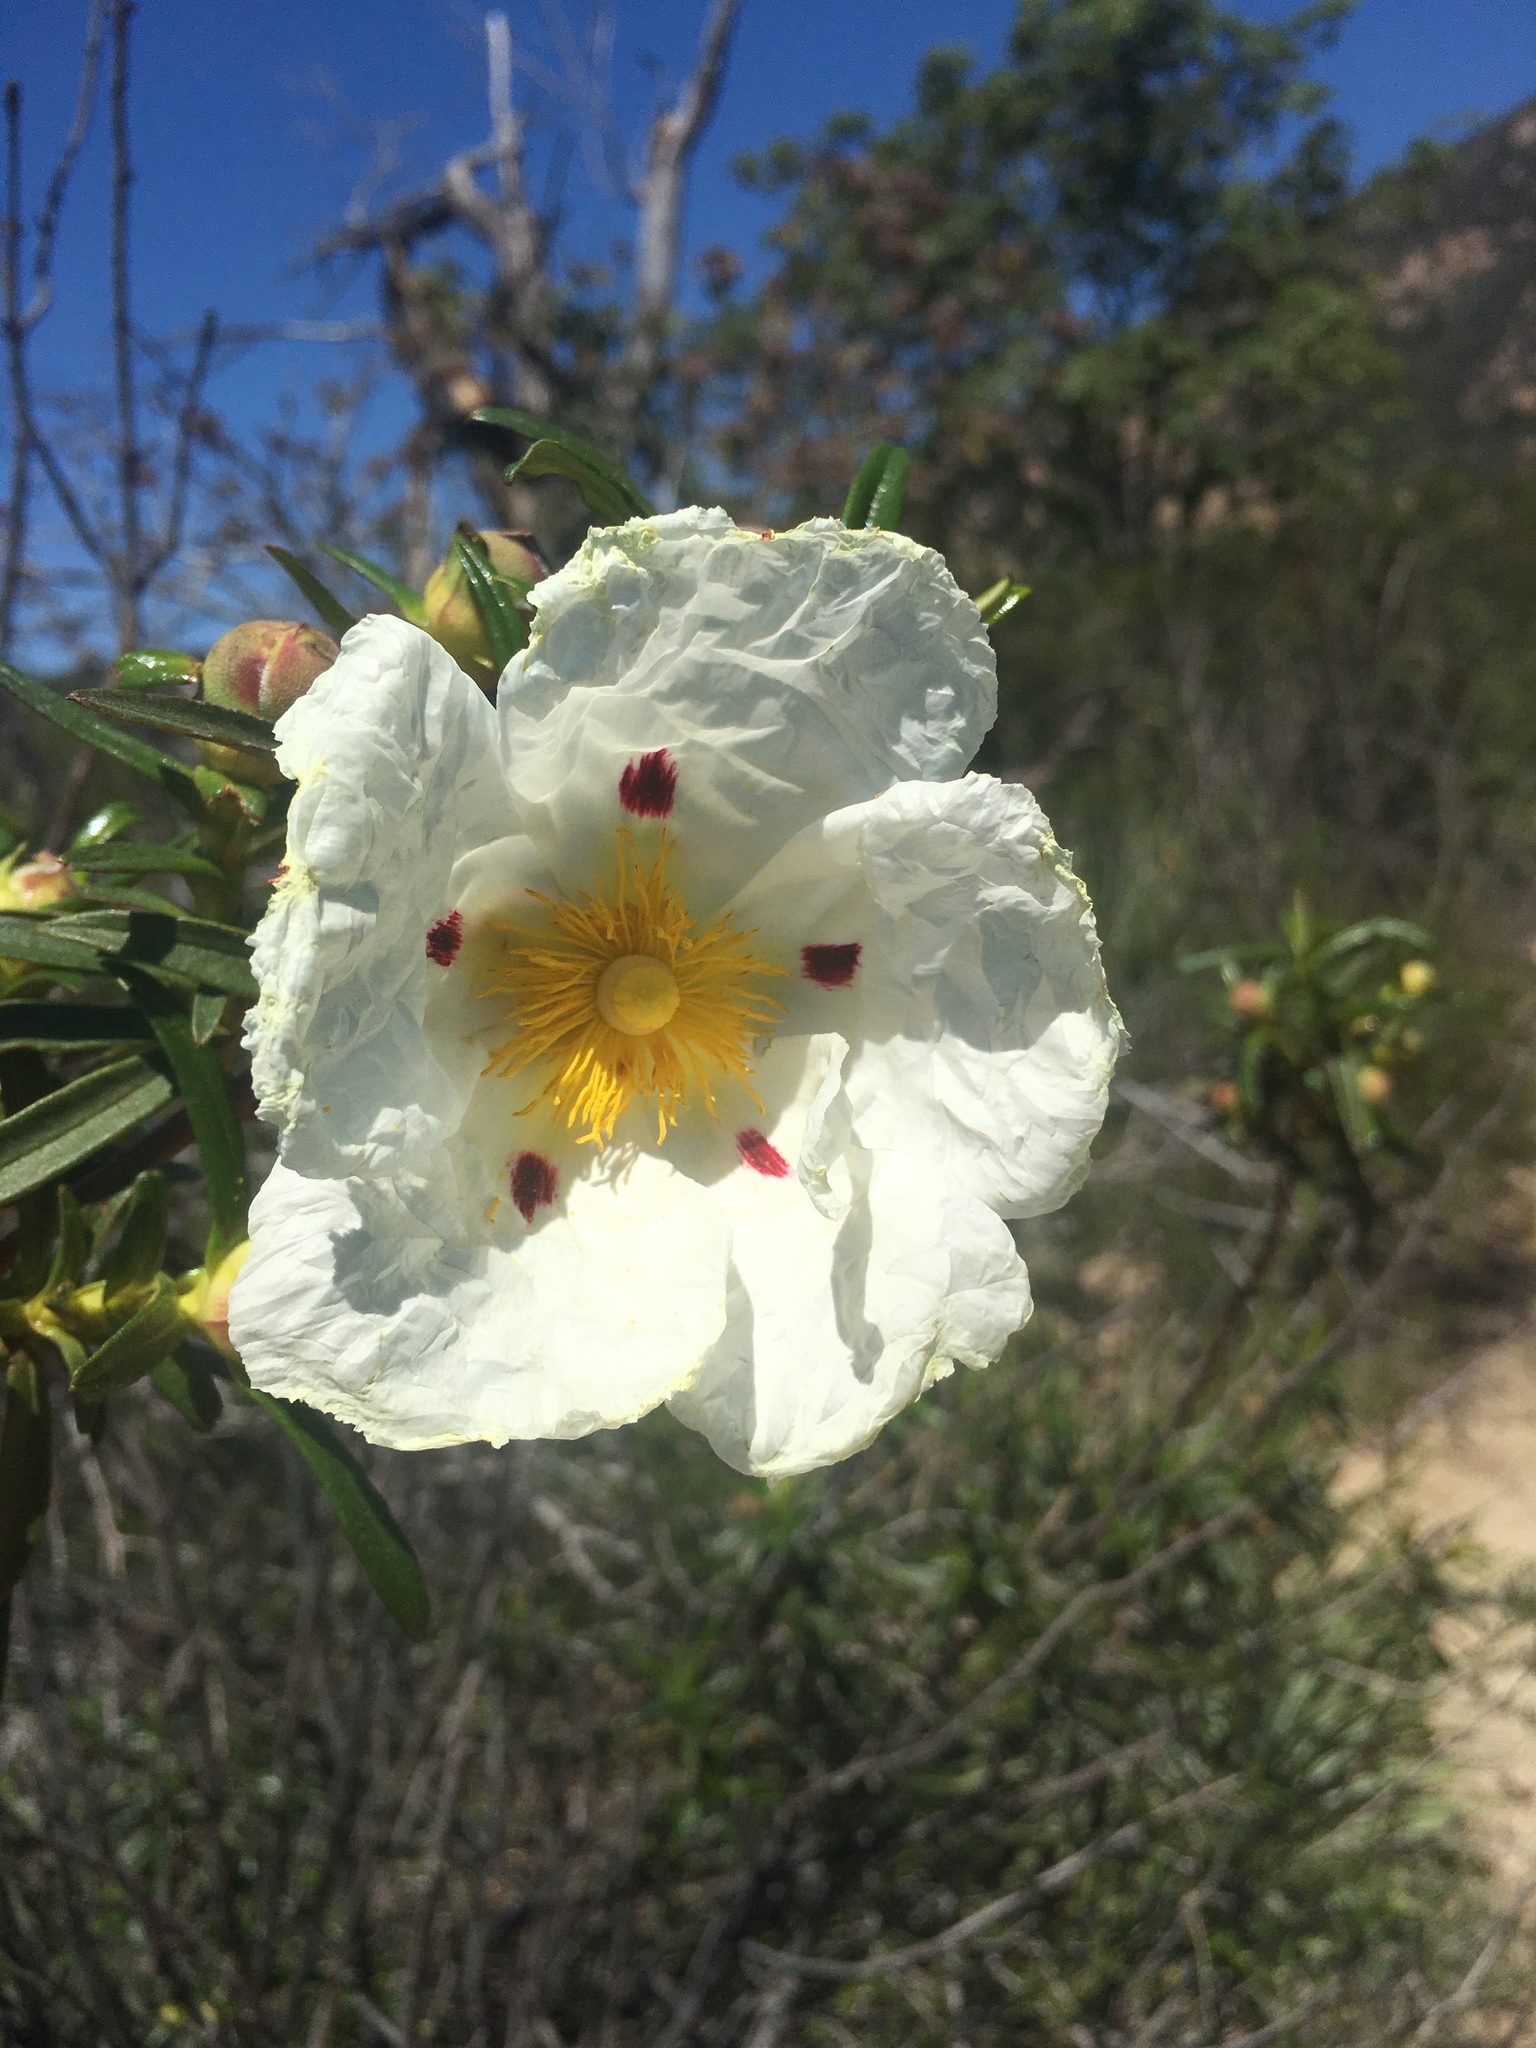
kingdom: Plantae
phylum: Tracheophyta
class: Magnoliopsida
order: Malvales
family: Cistaceae
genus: Cistus
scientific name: Cistus ladanifer
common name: Common gum cistus
